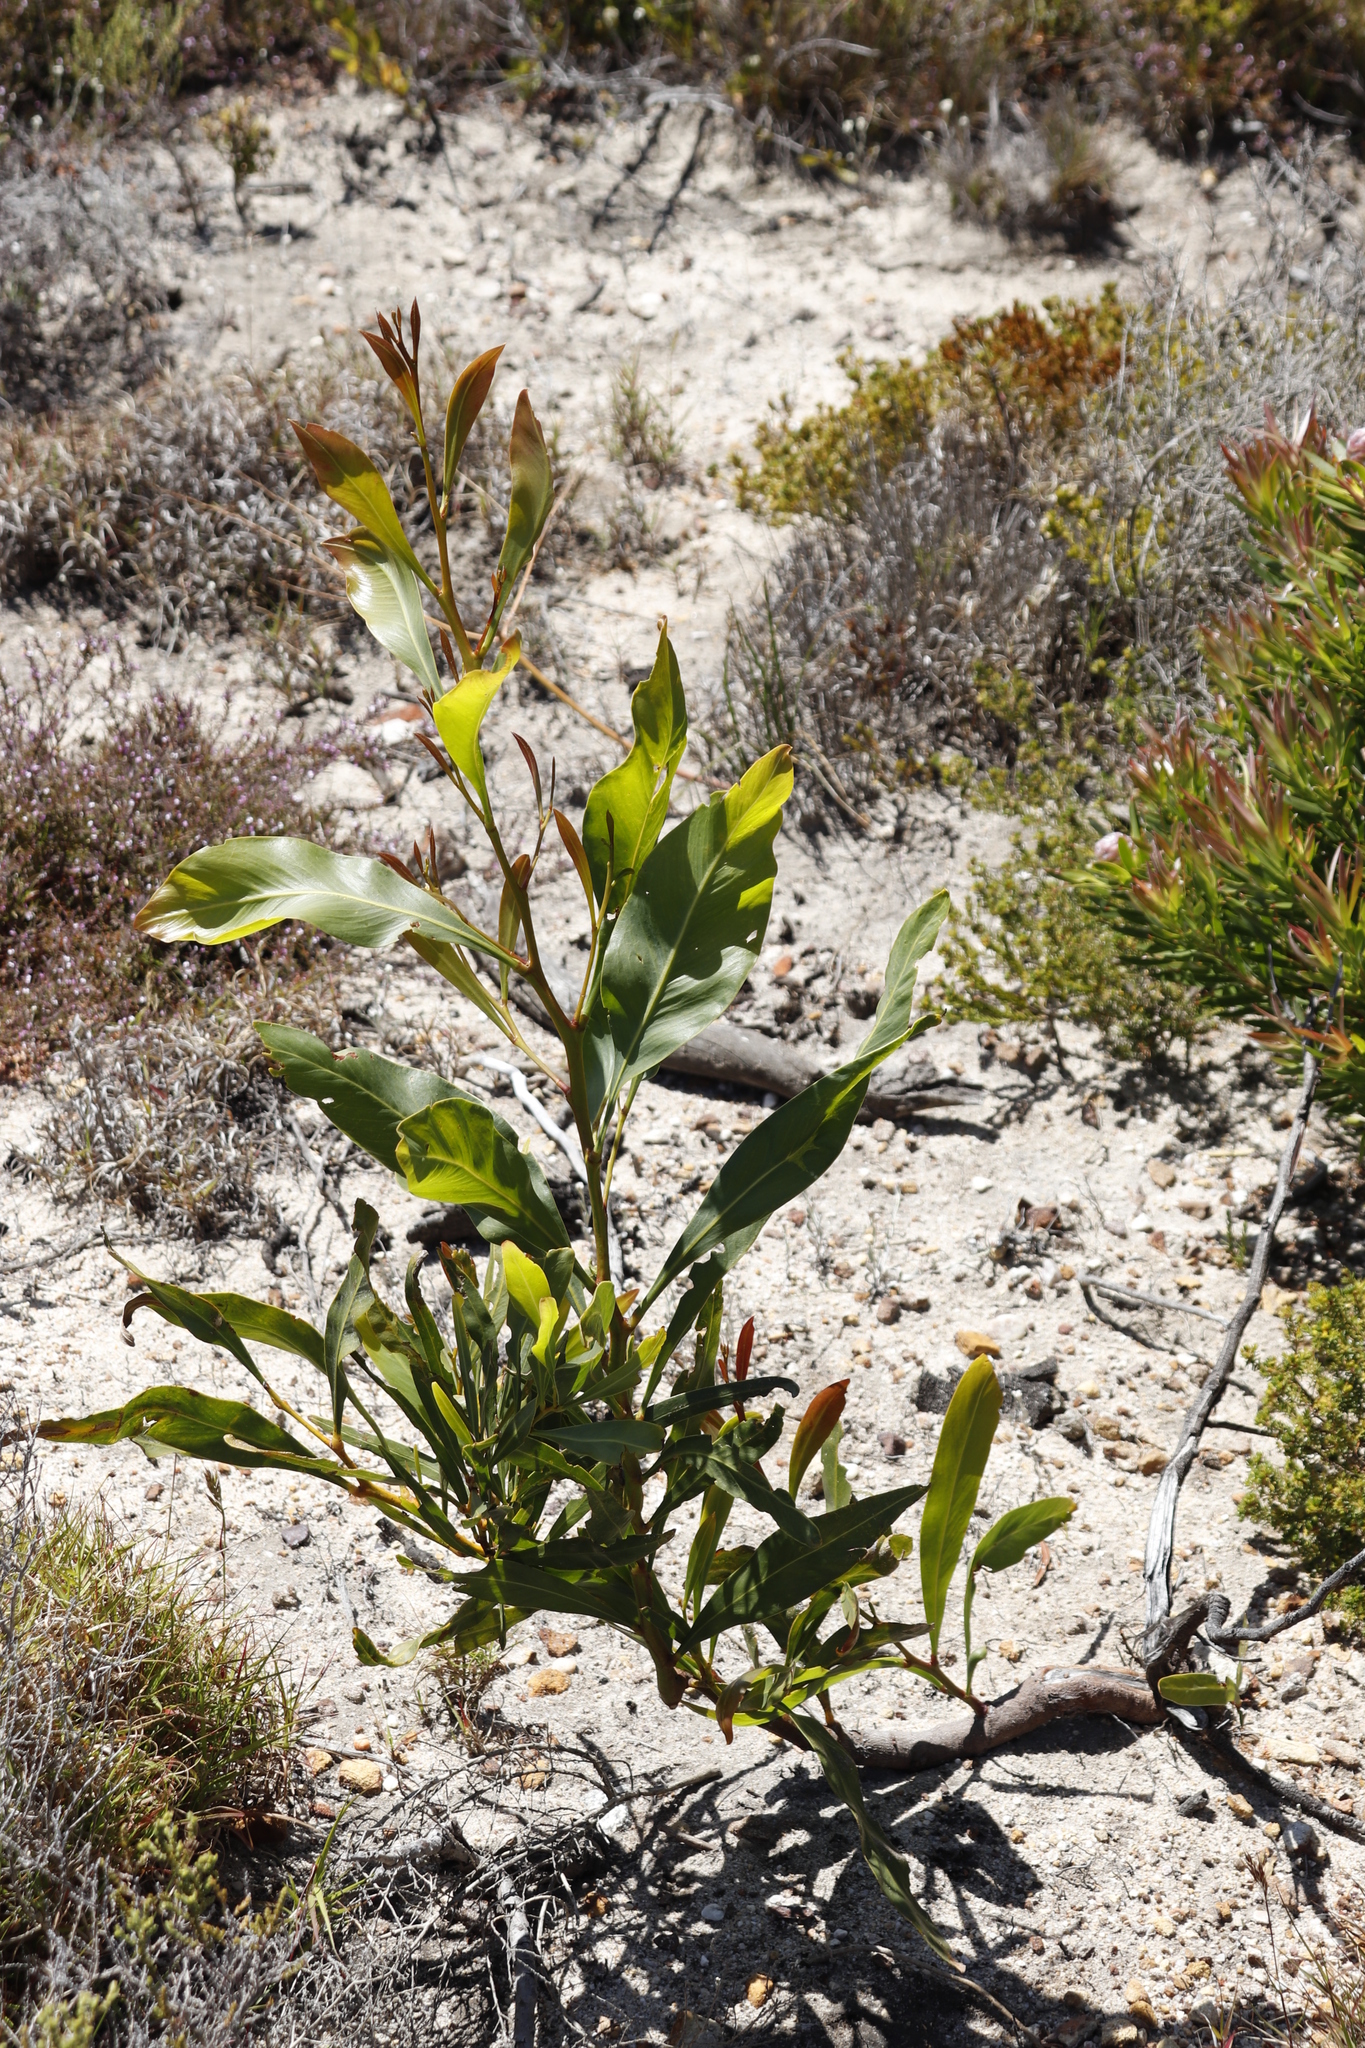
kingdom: Plantae
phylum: Tracheophyta
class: Magnoliopsida
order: Fabales
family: Fabaceae
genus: Acacia
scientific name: Acacia saligna
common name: Orange wattle
